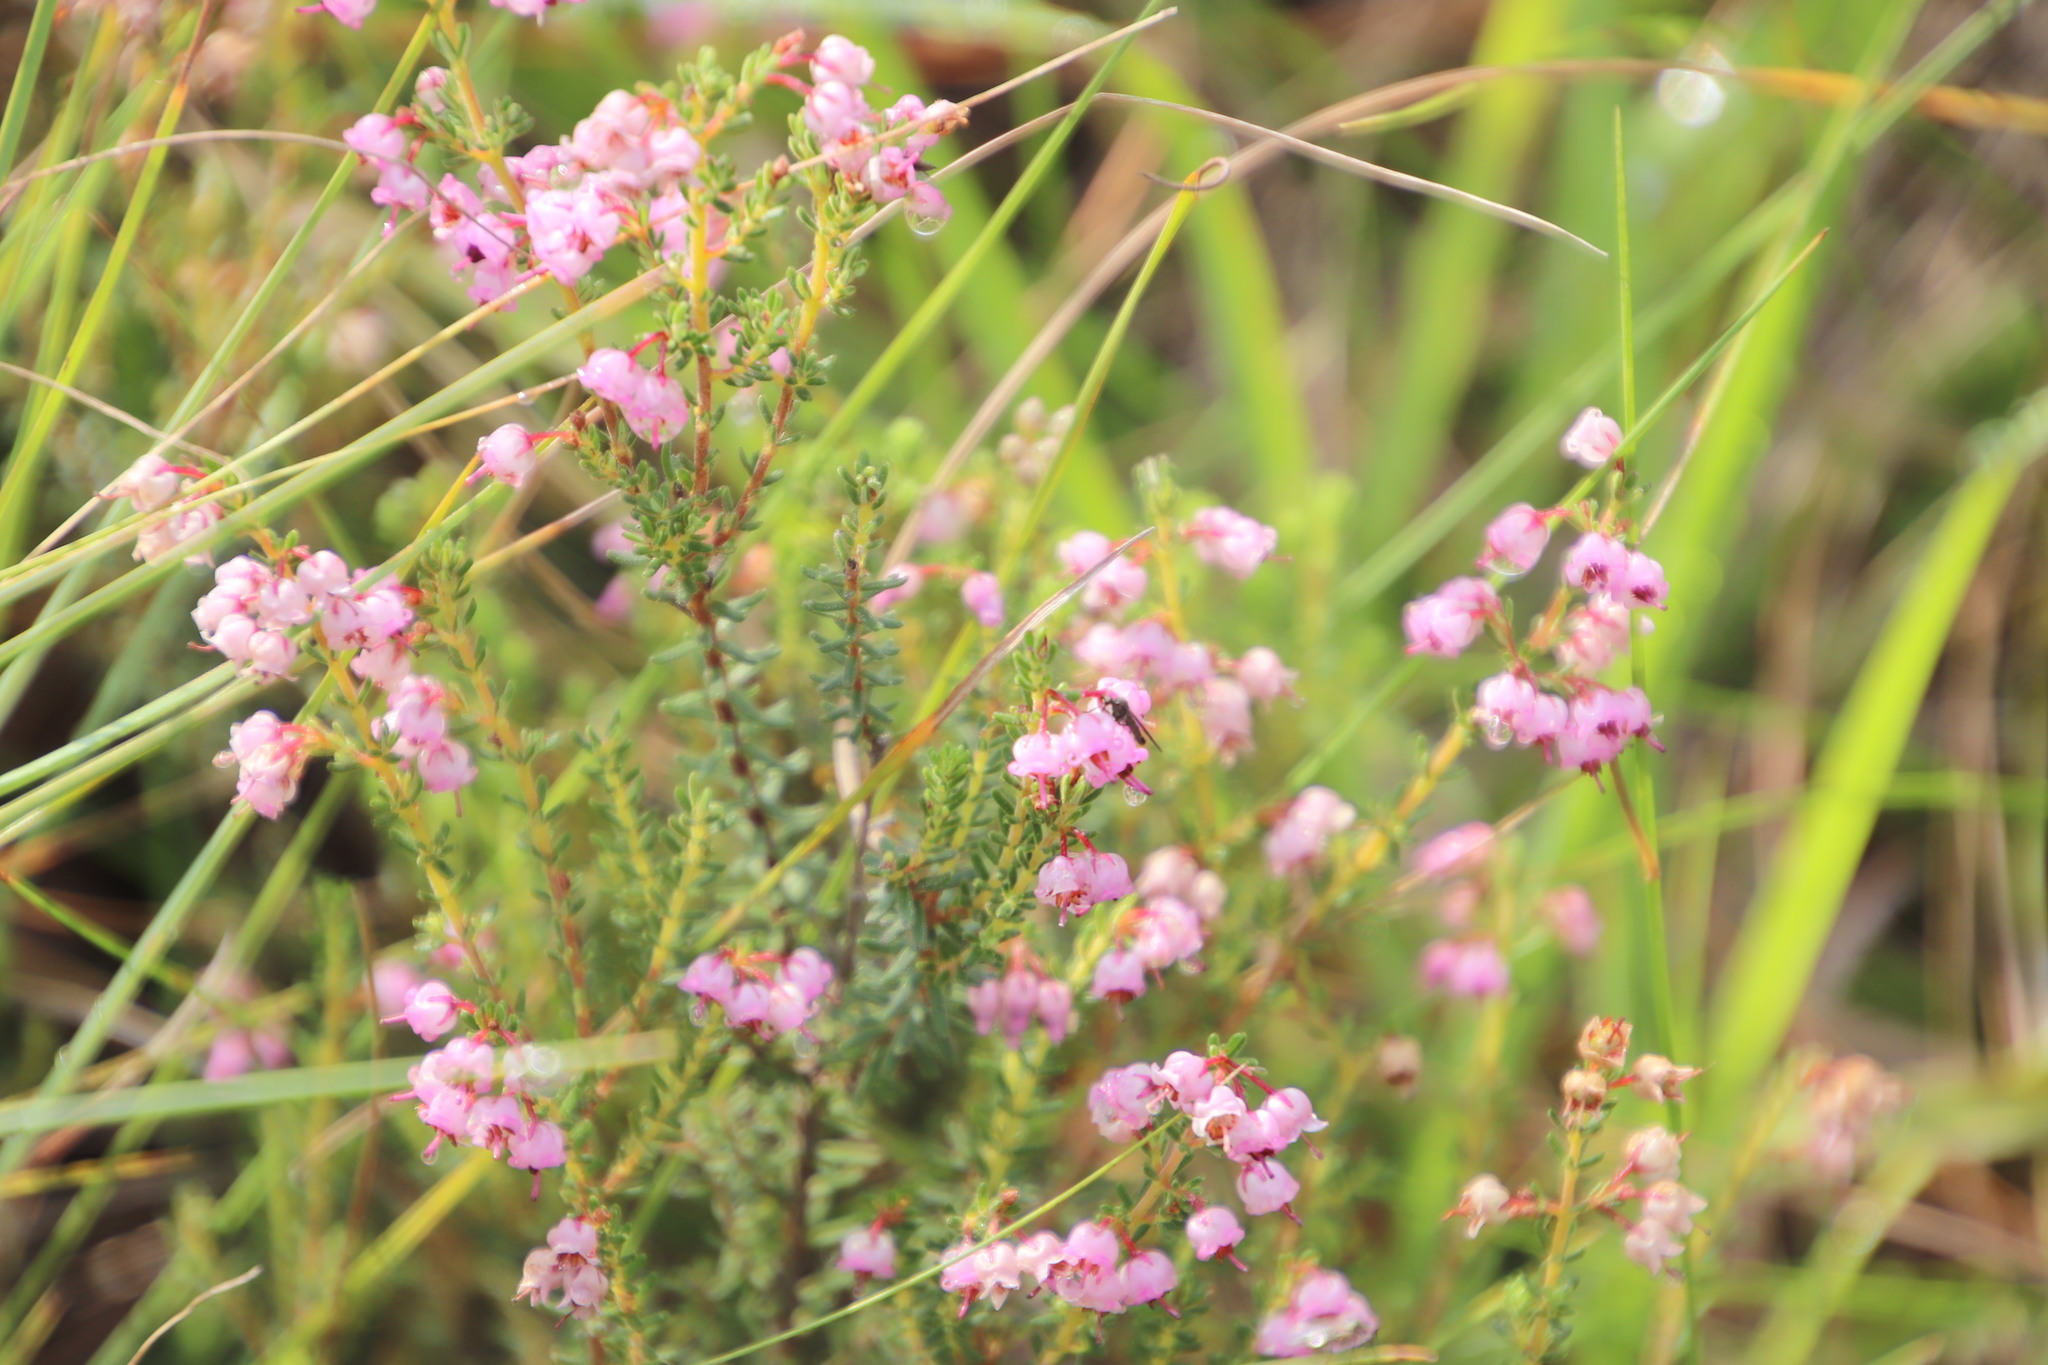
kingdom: Plantae
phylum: Tracheophyta
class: Magnoliopsida
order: Ericales
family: Ericaceae
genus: Erica
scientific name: Erica aestiva
